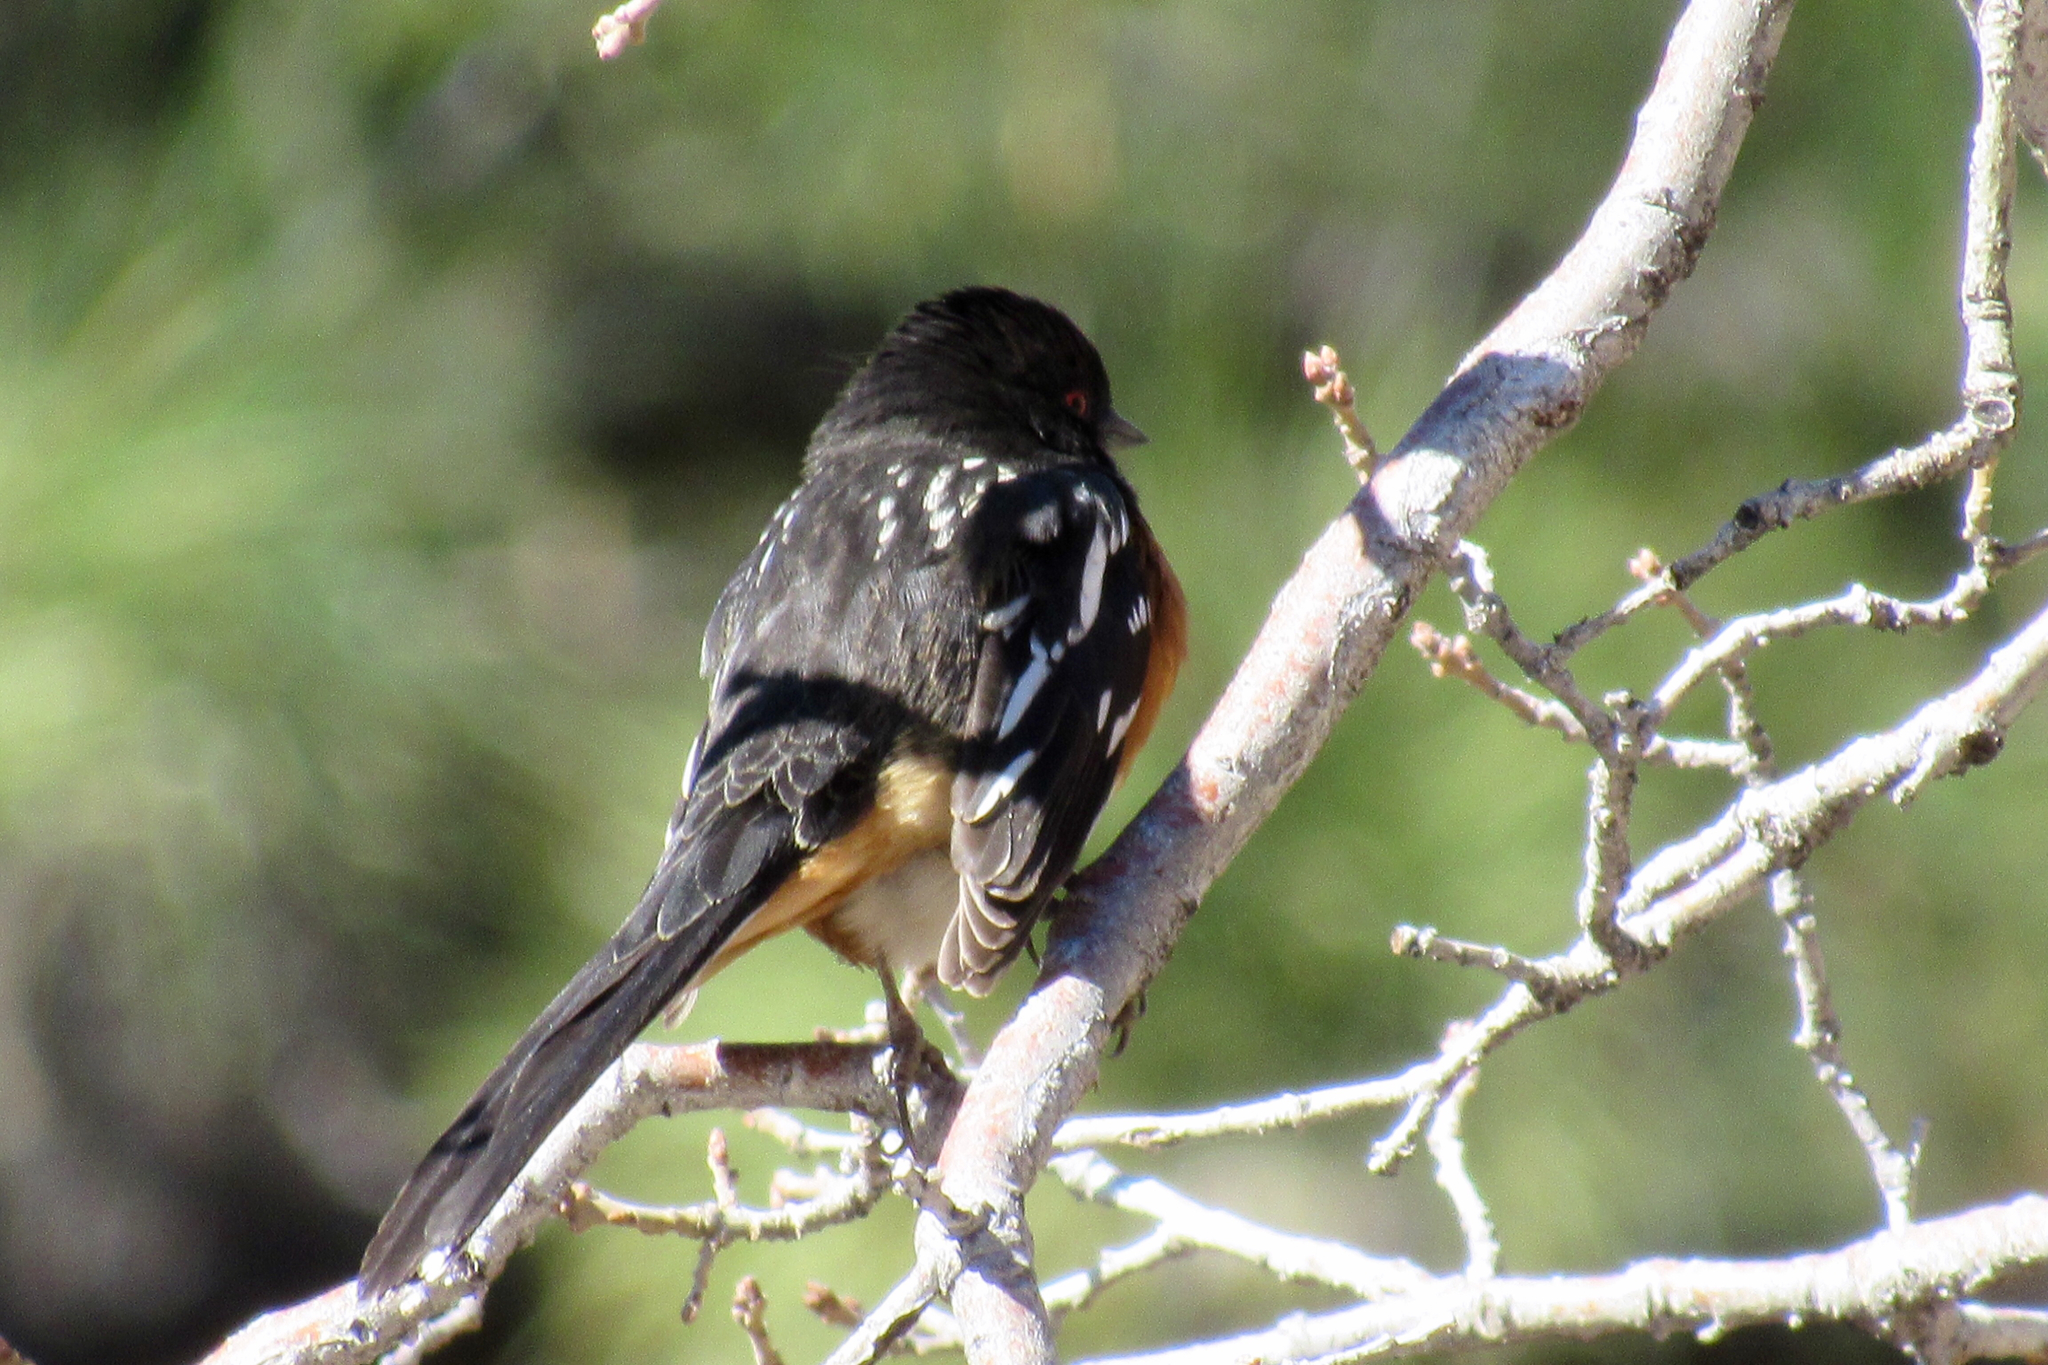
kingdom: Animalia
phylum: Chordata
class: Aves
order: Passeriformes
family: Passerellidae
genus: Pipilo
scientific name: Pipilo maculatus
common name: Spotted towhee
